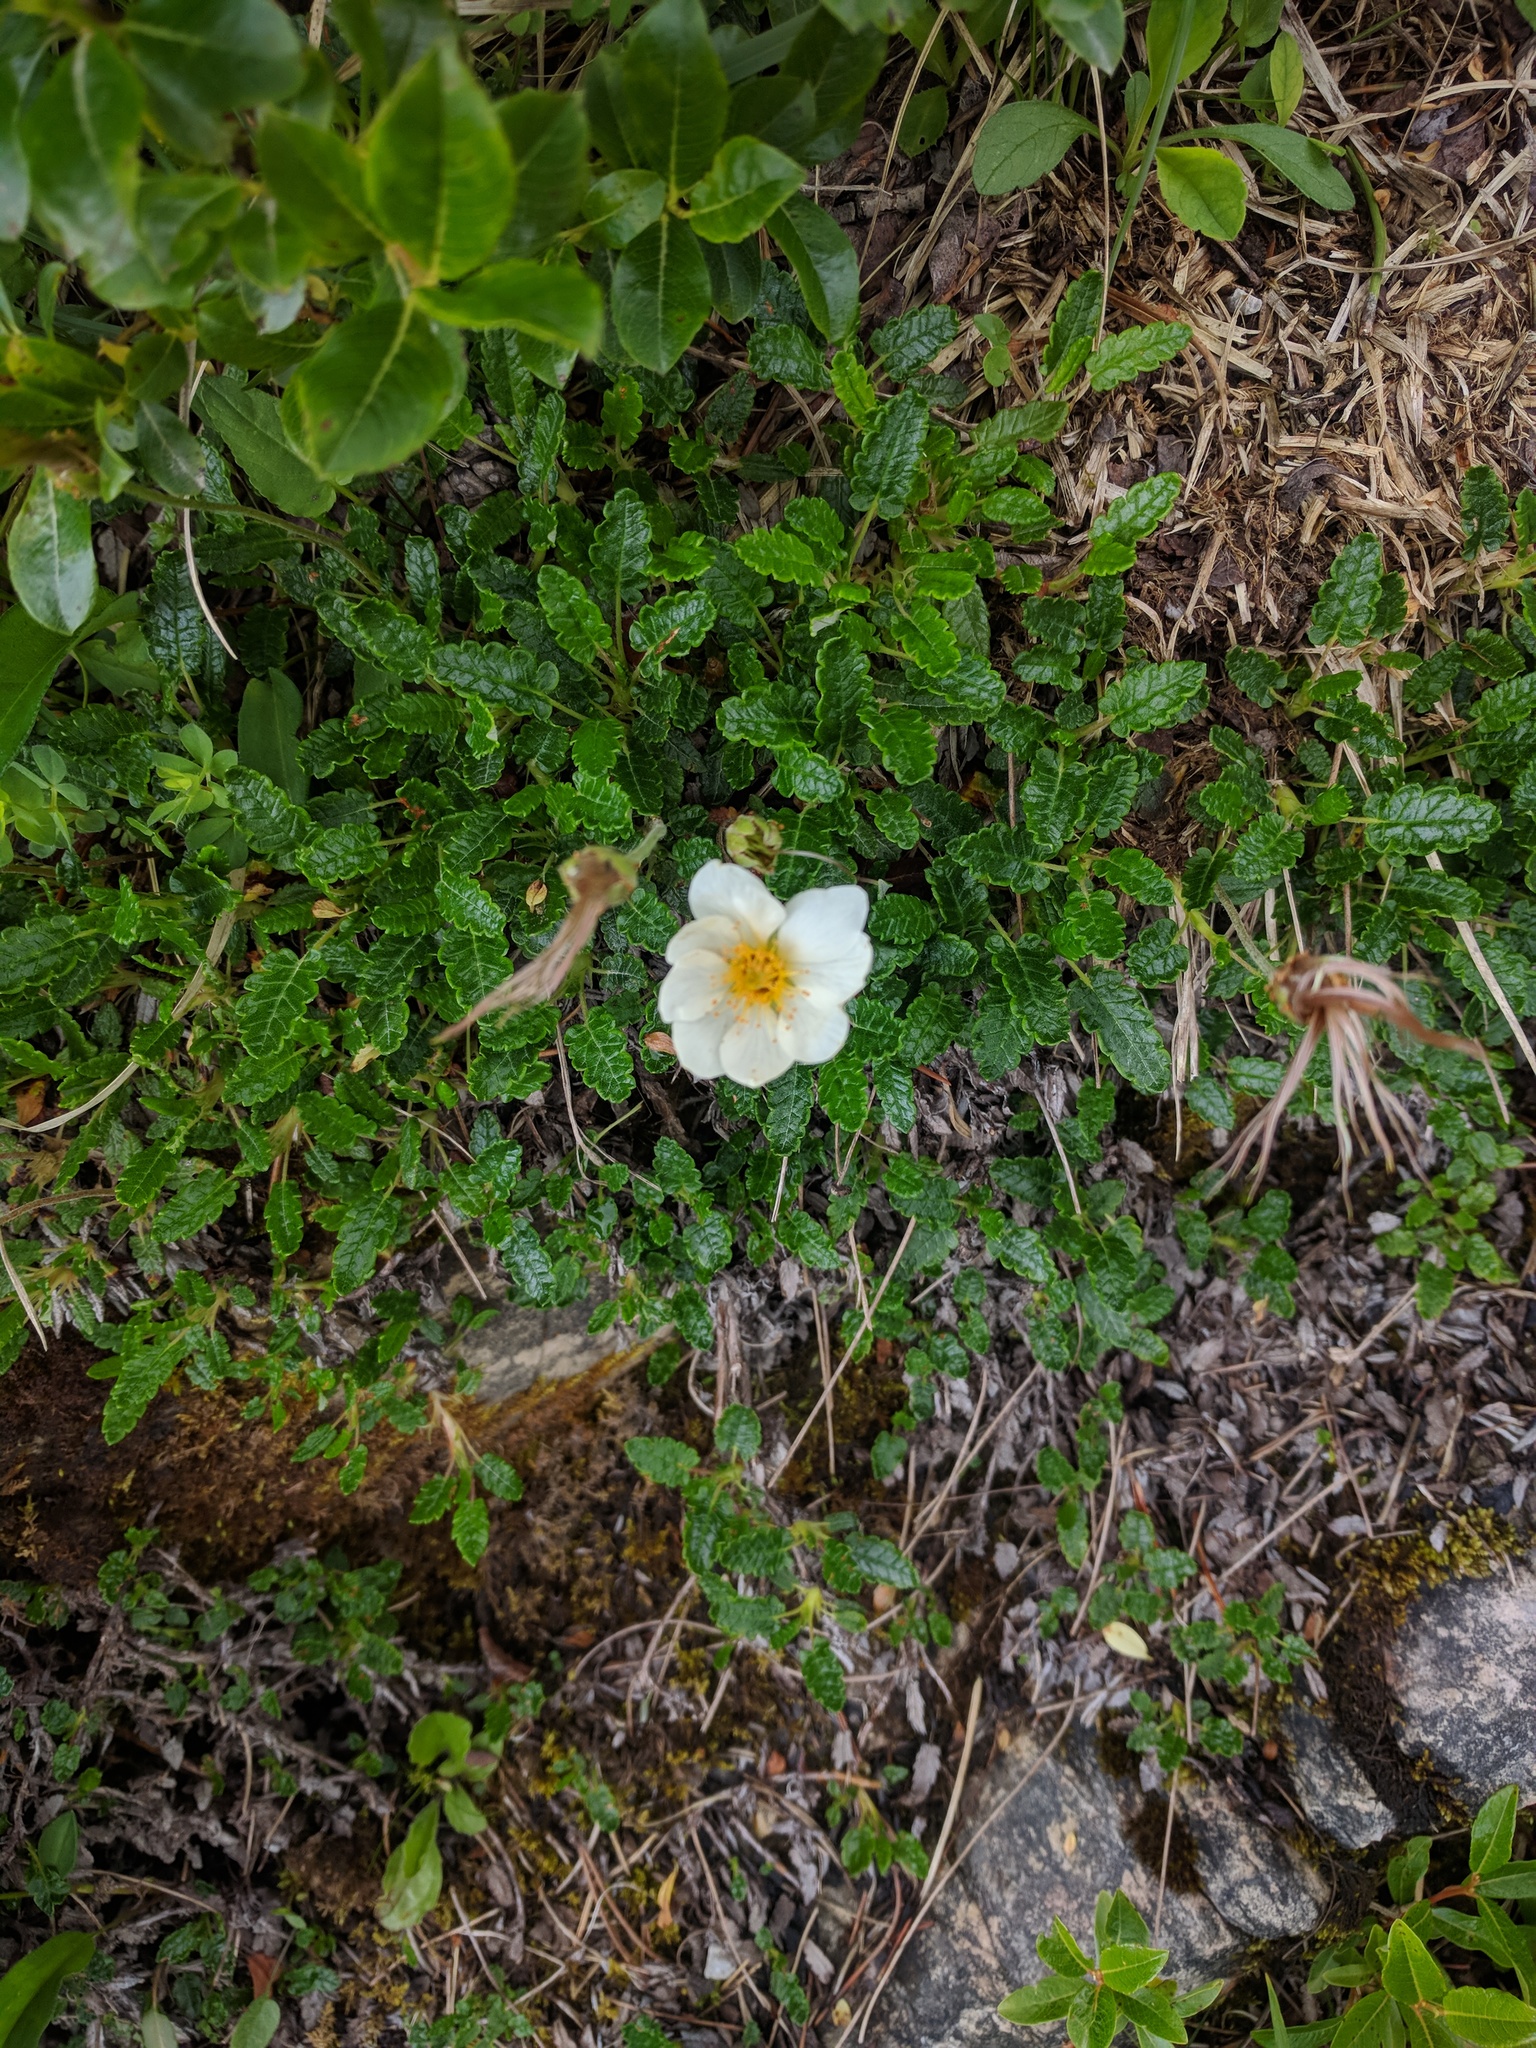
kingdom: Plantae
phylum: Tracheophyta
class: Magnoliopsida
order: Rosales
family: Rosaceae
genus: Dryas
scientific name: Dryas octopetala
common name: Eight-petal mountain-avens
